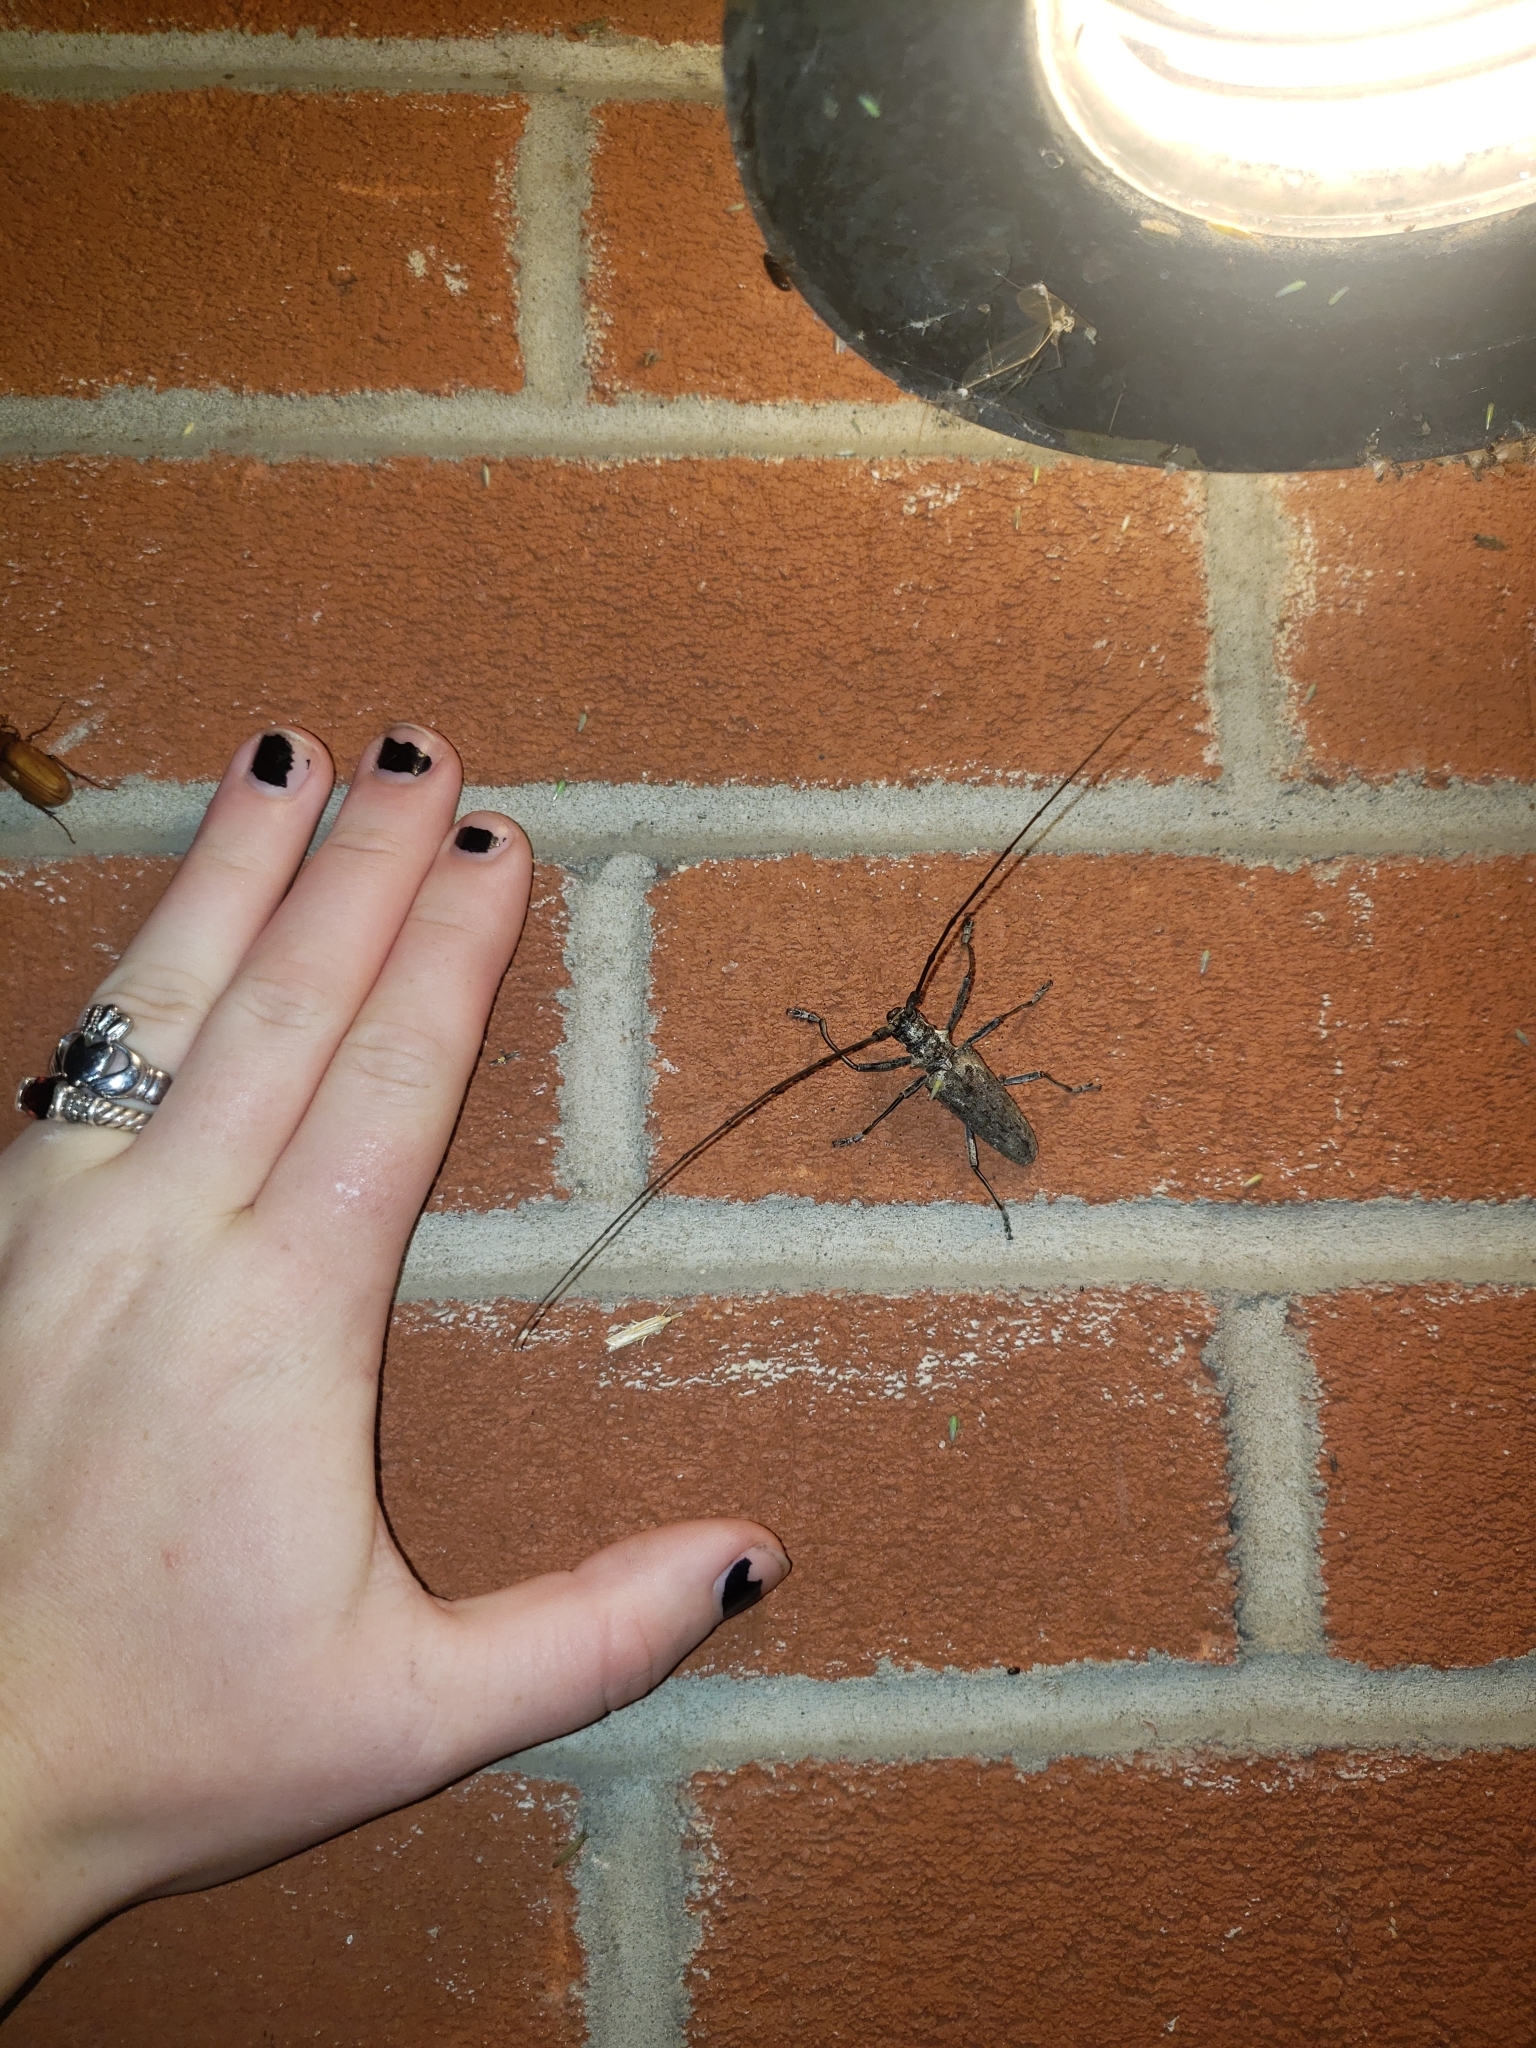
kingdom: Animalia
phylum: Arthropoda
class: Insecta
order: Coleoptera
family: Cerambycidae
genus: Monochamus
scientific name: Monochamus notatus
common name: Northeastern pine sawyer beetle
